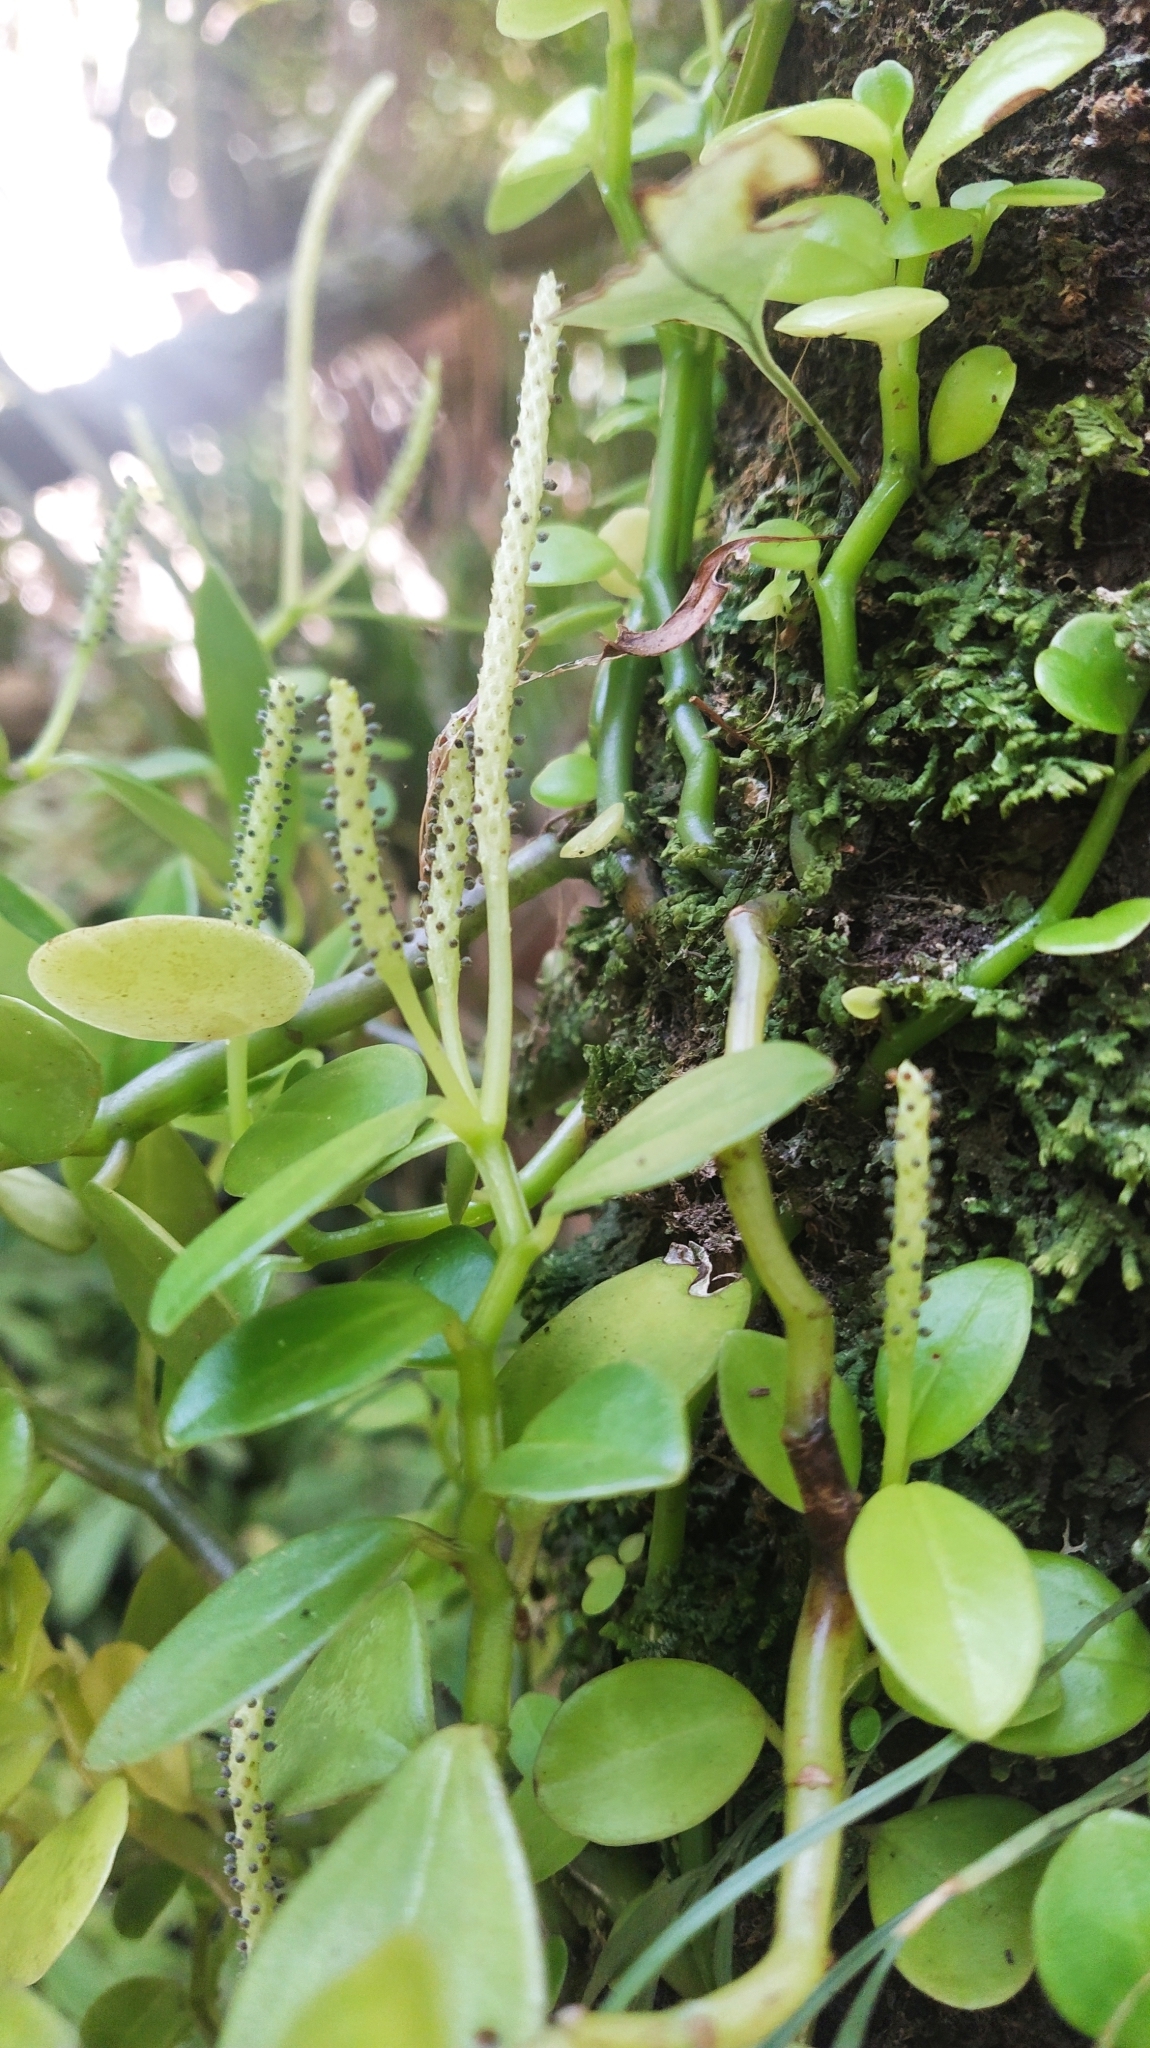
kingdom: Plantae
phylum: Tracheophyta
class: Magnoliopsida
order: Piperales
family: Piperaceae
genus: Peperomia
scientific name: Peperomia urvilleana
